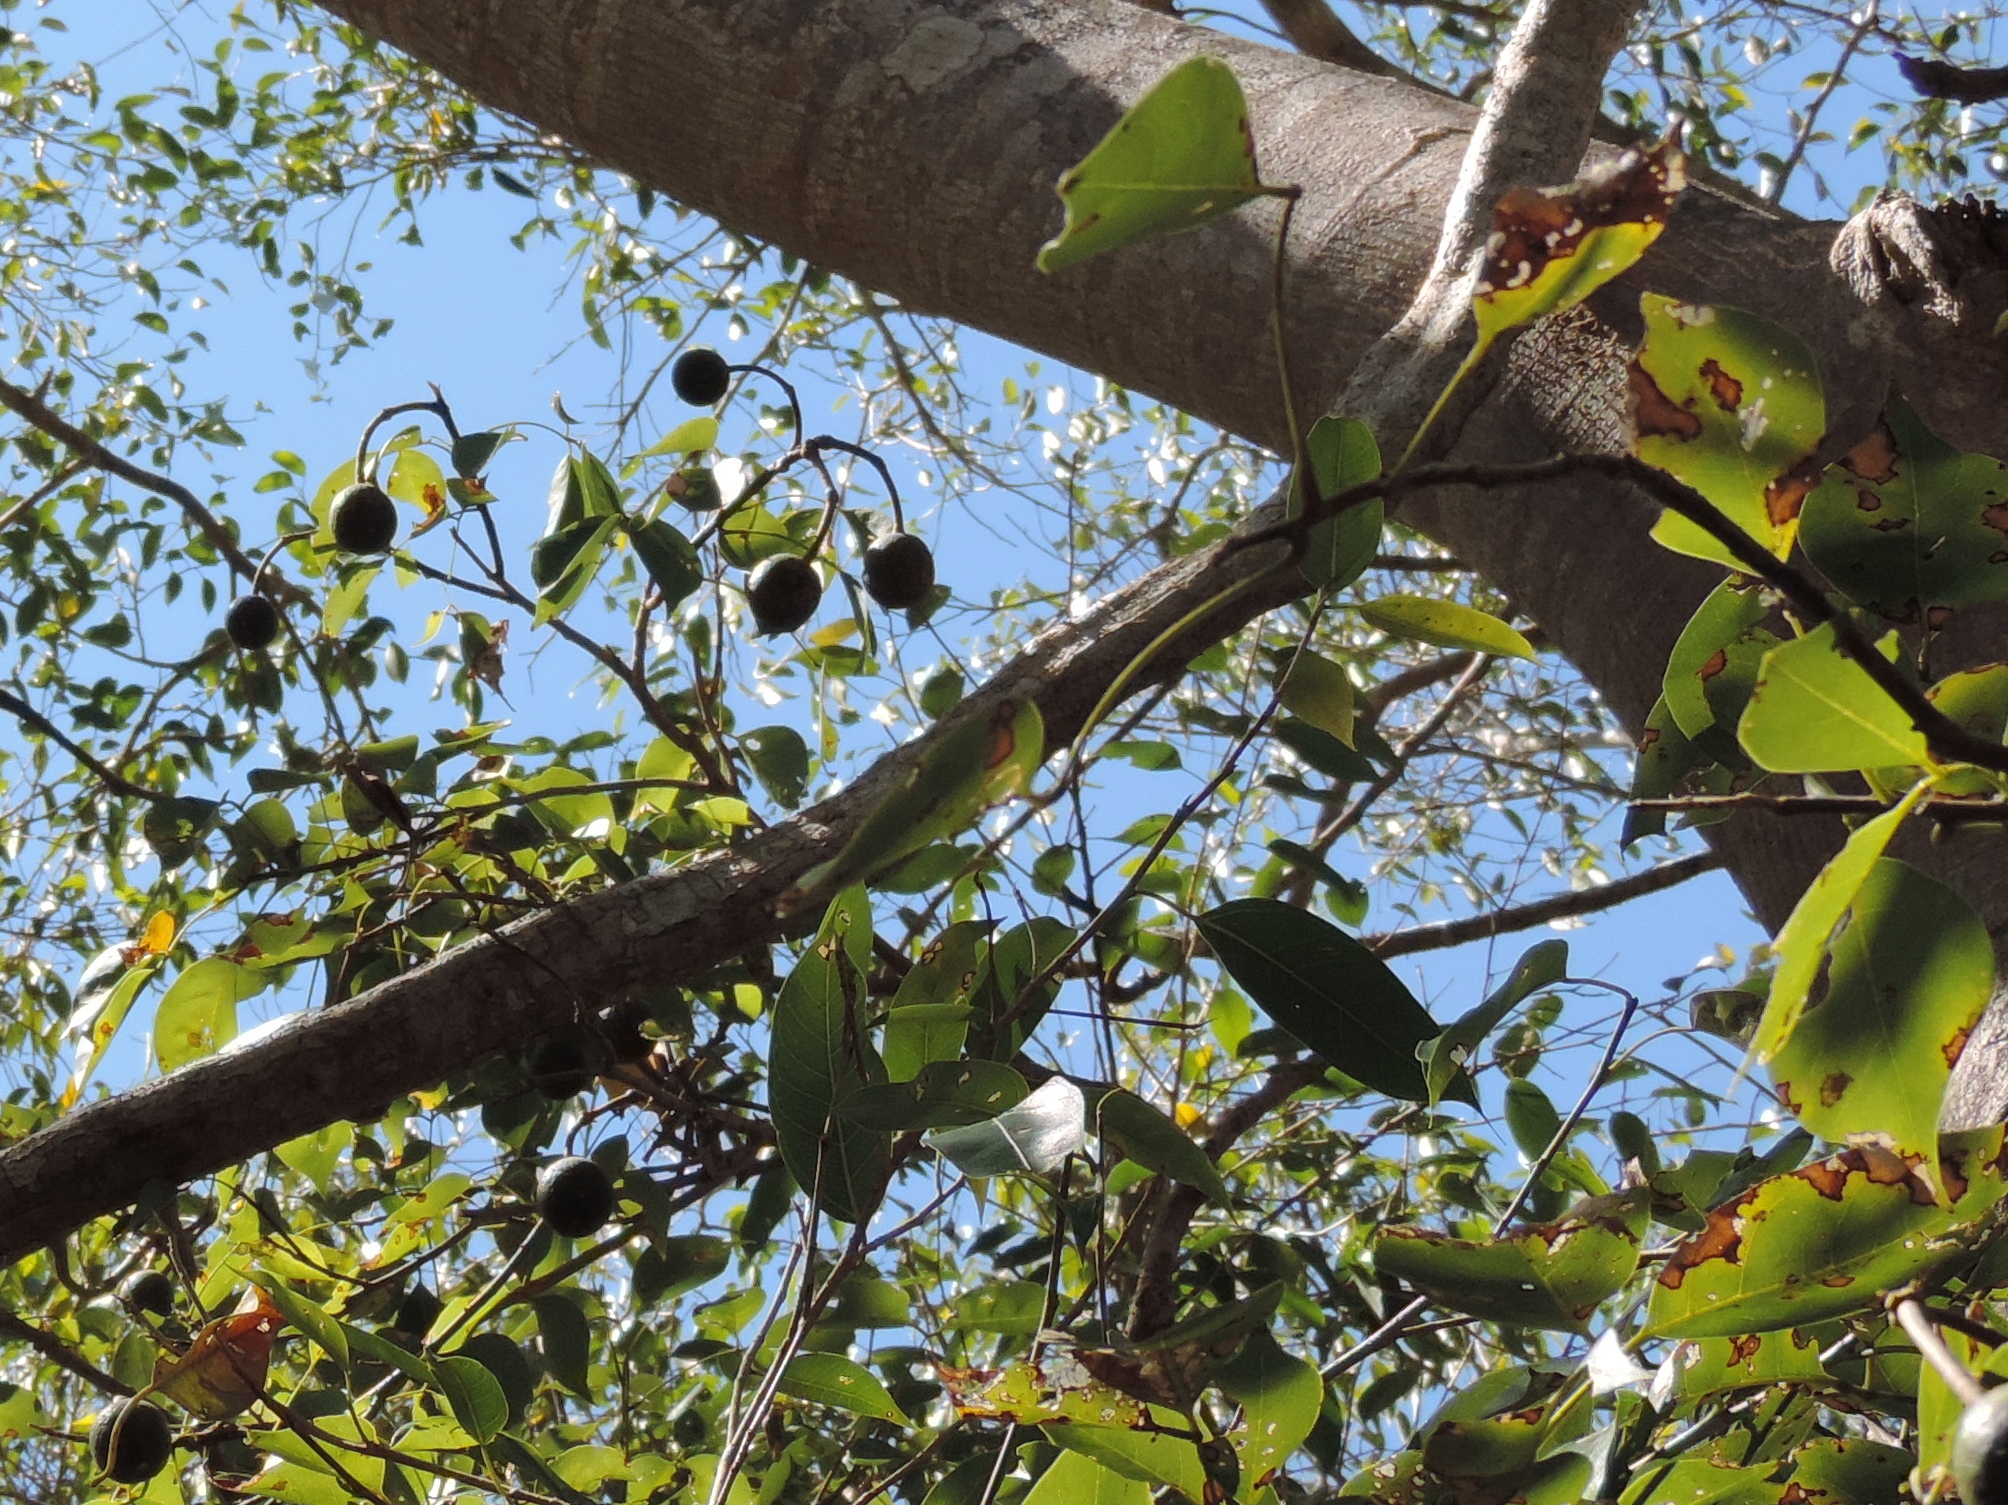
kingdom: Plantae
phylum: Tracheophyta
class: Magnoliopsida
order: Brassicales
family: Capparaceae
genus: Crateva
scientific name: Crateva tapia
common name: Garlic-pear
